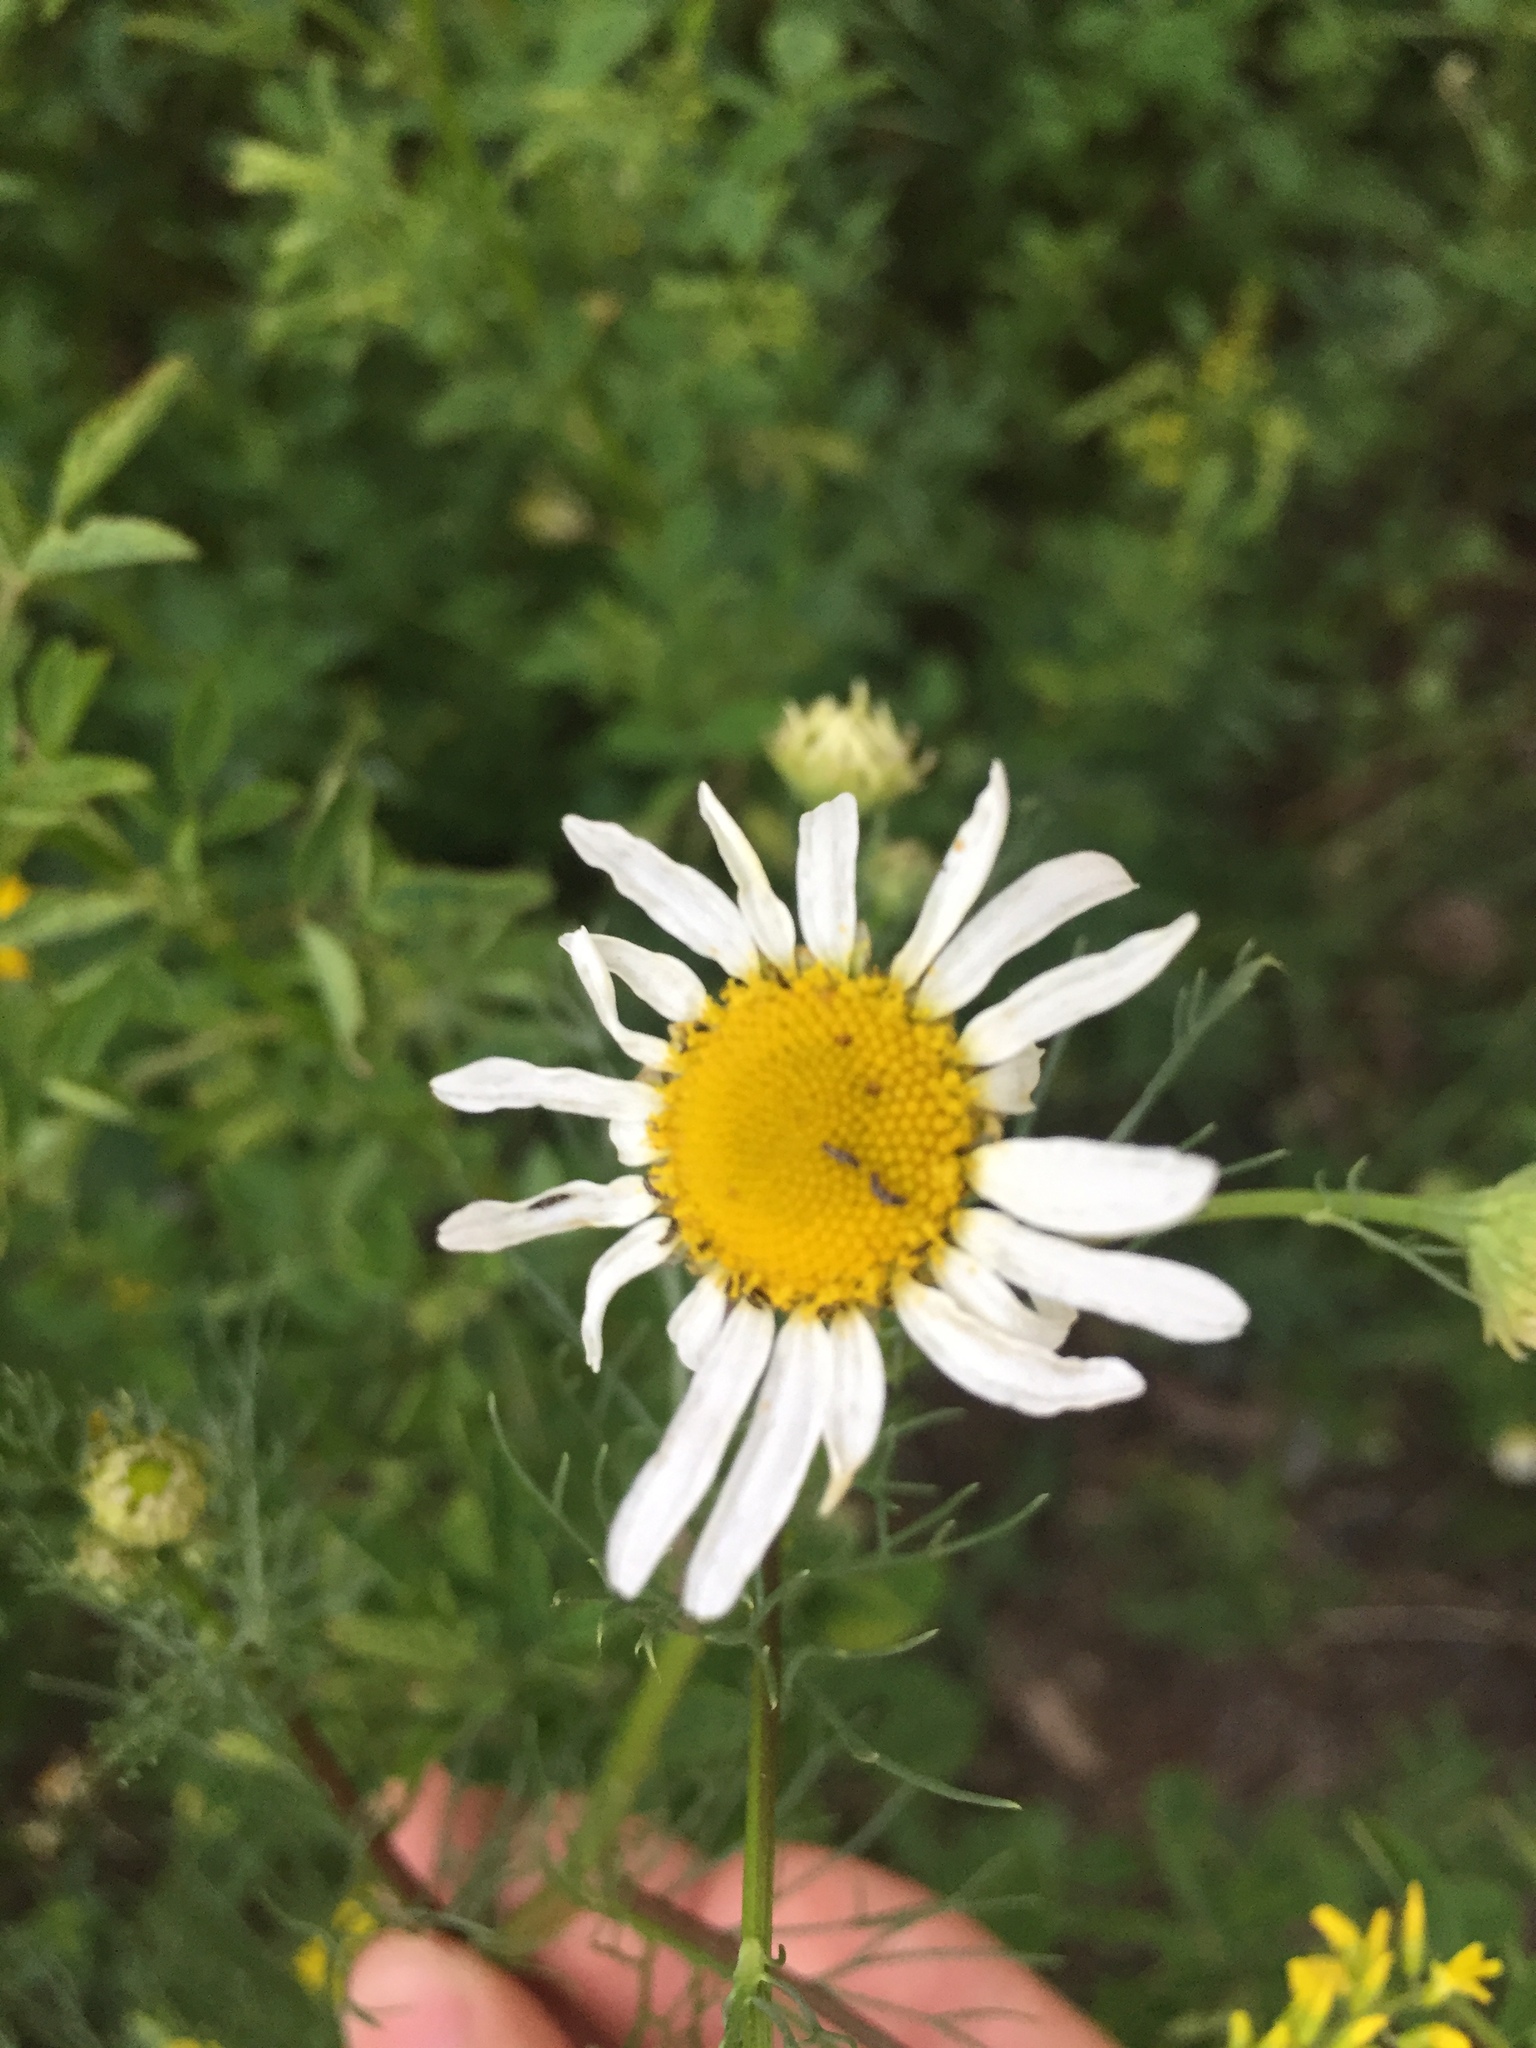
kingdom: Plantae
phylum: Tracheophyta
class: Magnoliopsida
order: Asterales
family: Asteraceae
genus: Tripleurospermum
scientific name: Tripleurospermum inodorum
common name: Scentless mayweed
